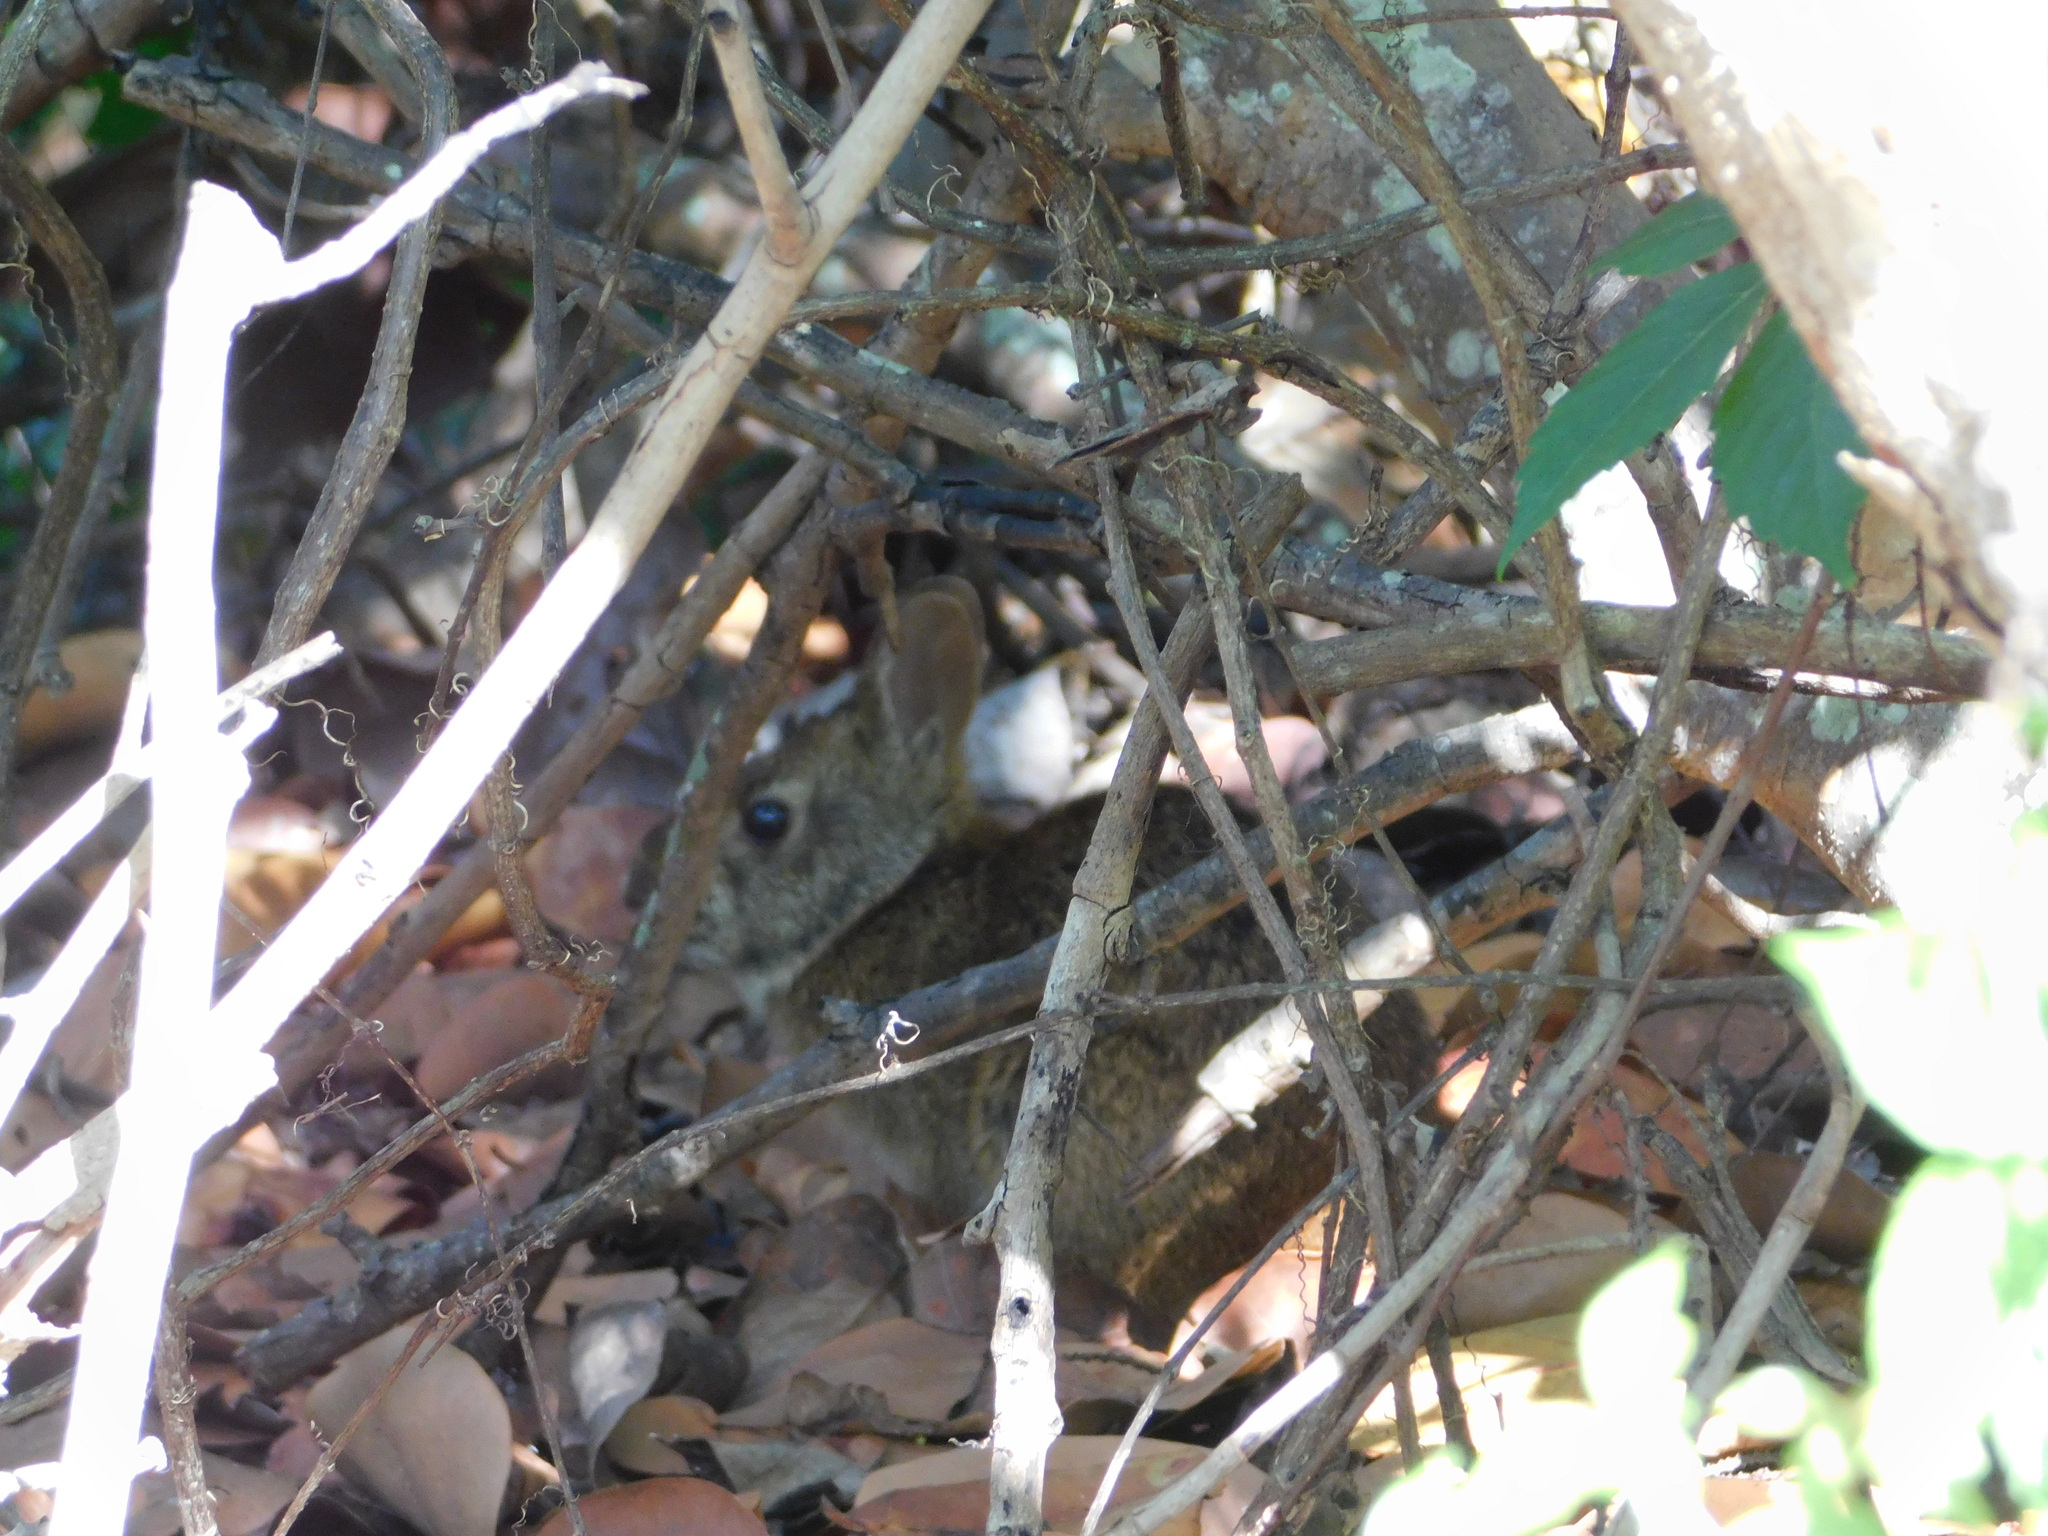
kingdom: Animalia
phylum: Chordata
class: Mammalia
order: Lagomorpha
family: Leporidae
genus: Sylvilagus
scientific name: Sylvilagus palustris
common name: Marsh rabbit
